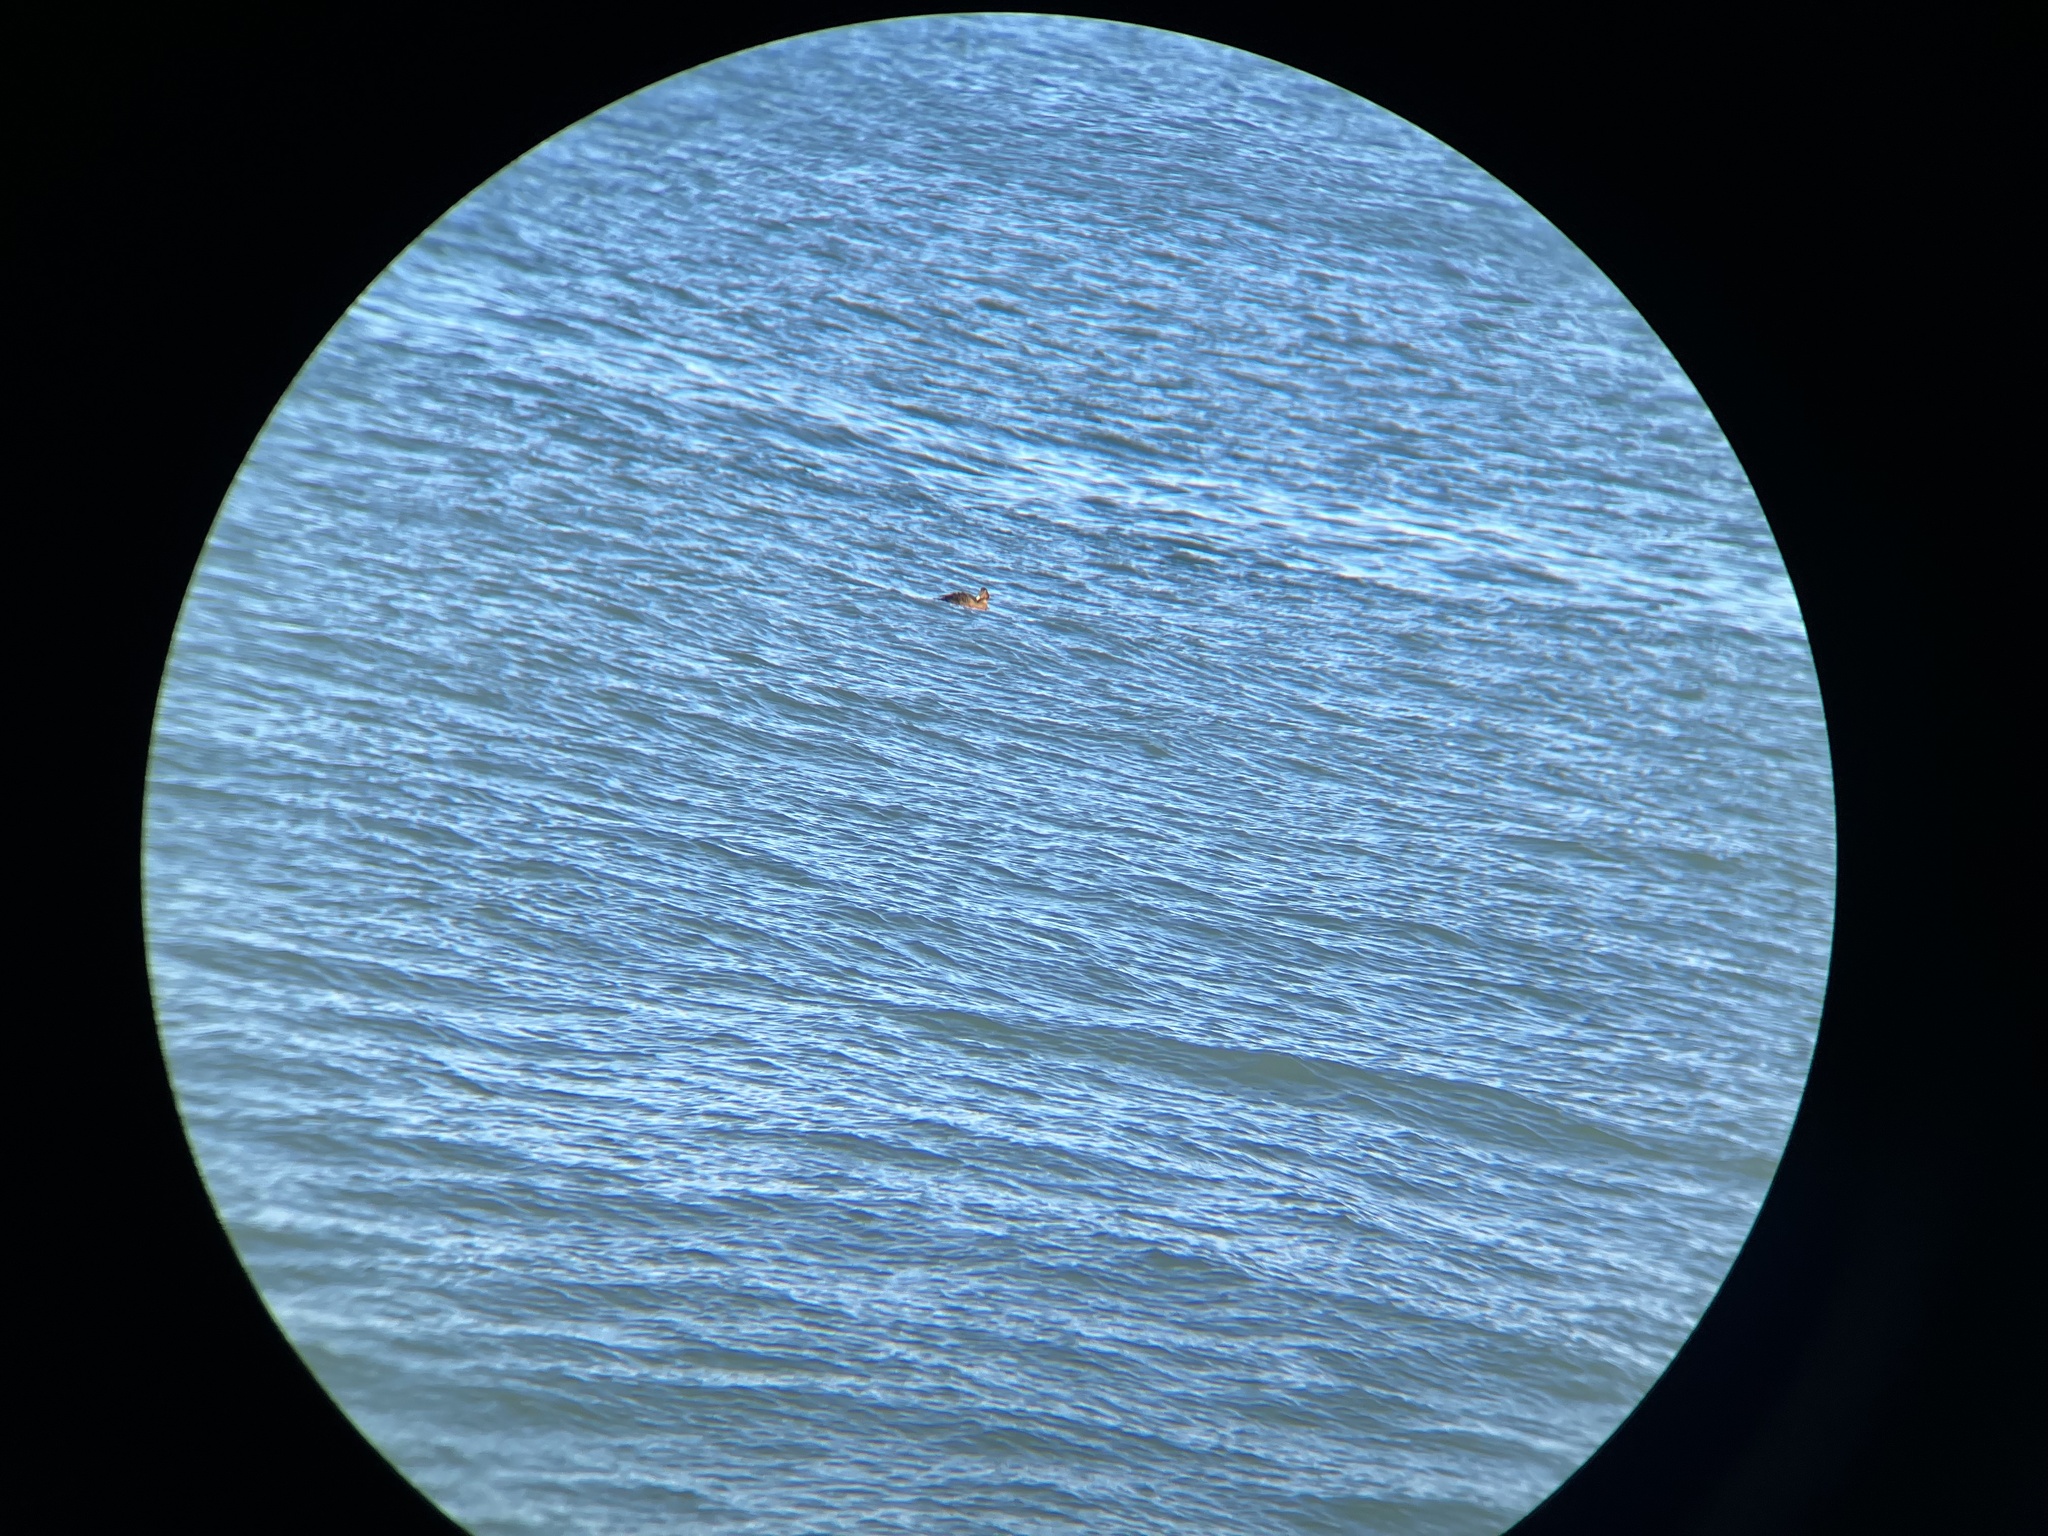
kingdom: Animalia
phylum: Chordata
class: Aves
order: Anseriformes
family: Anatidae
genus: Somateria
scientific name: Somateria mollissima
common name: Common eider
